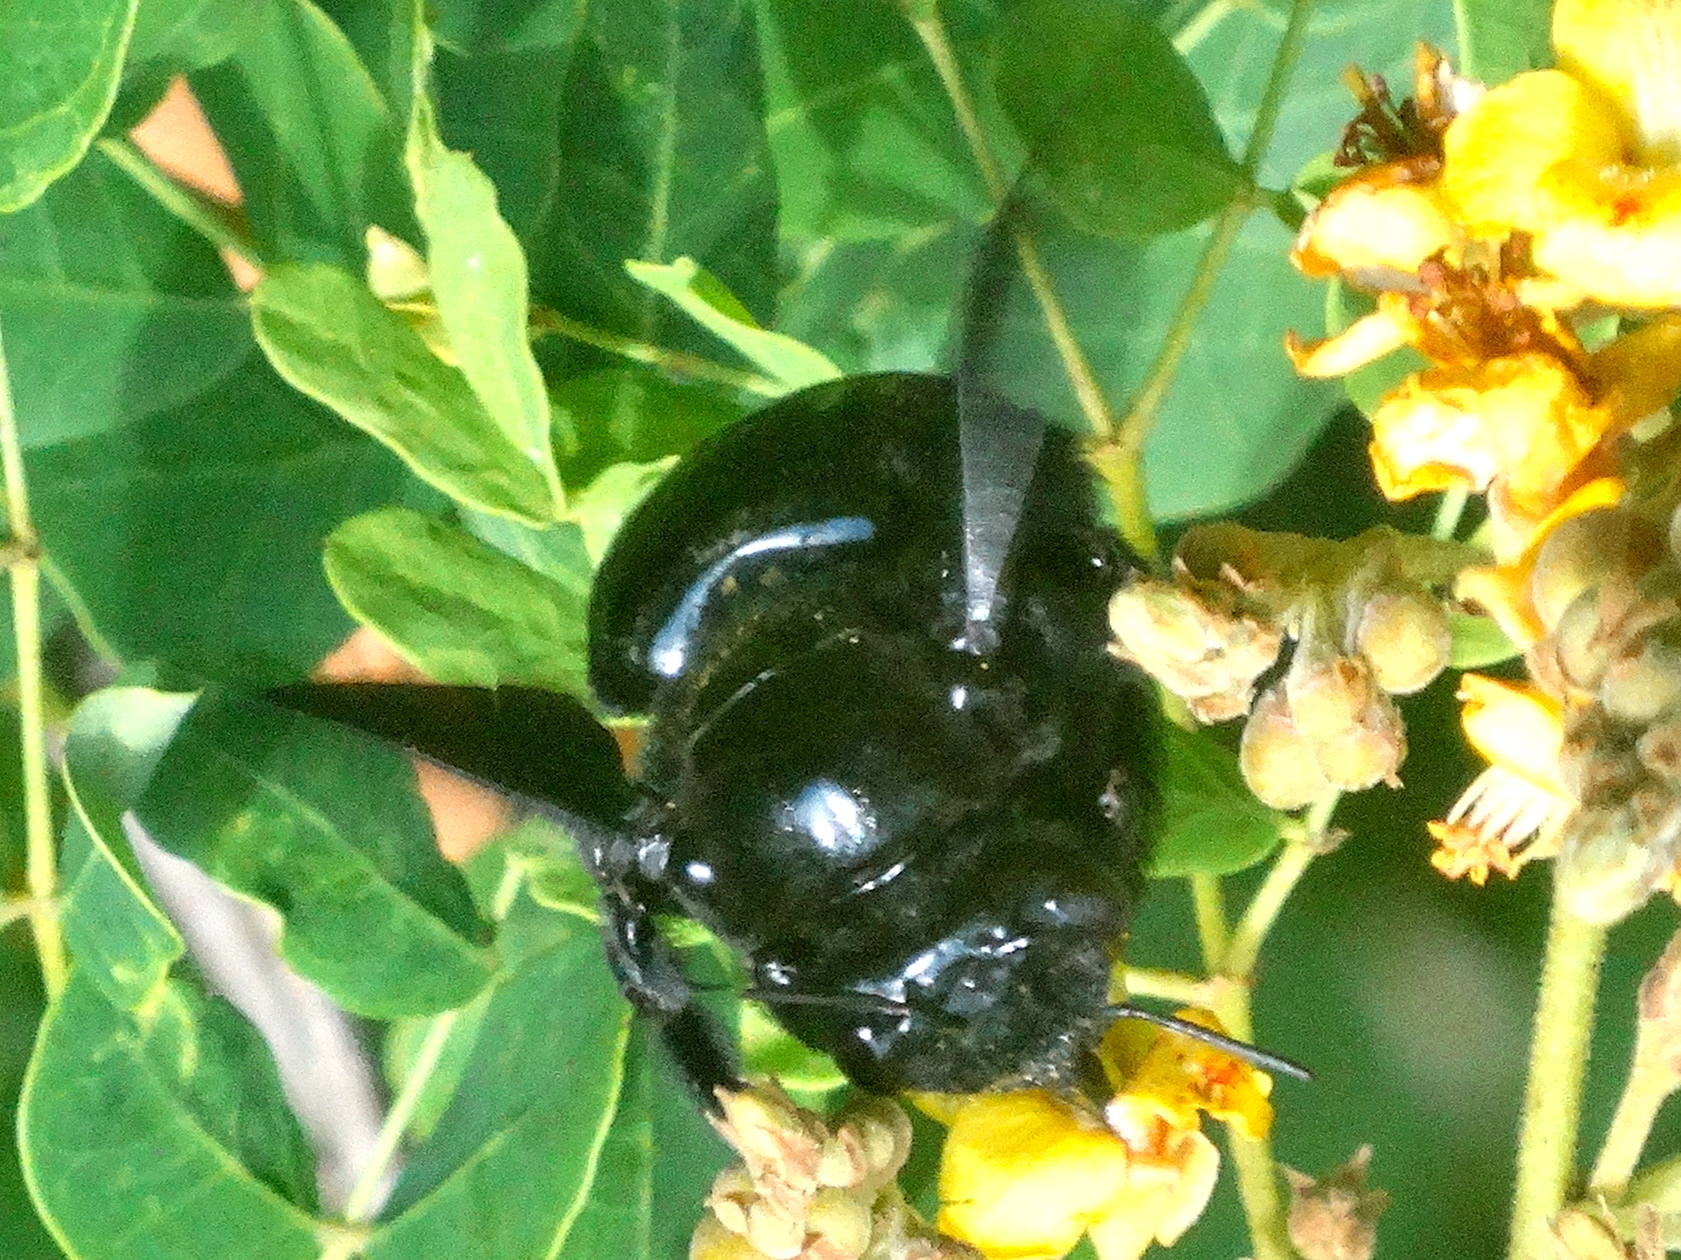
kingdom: Animalia
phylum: Arthropoda
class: Insecta
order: Hymenoptera
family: Apidae
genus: Xylocopa
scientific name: Xylocopa fimbriata
